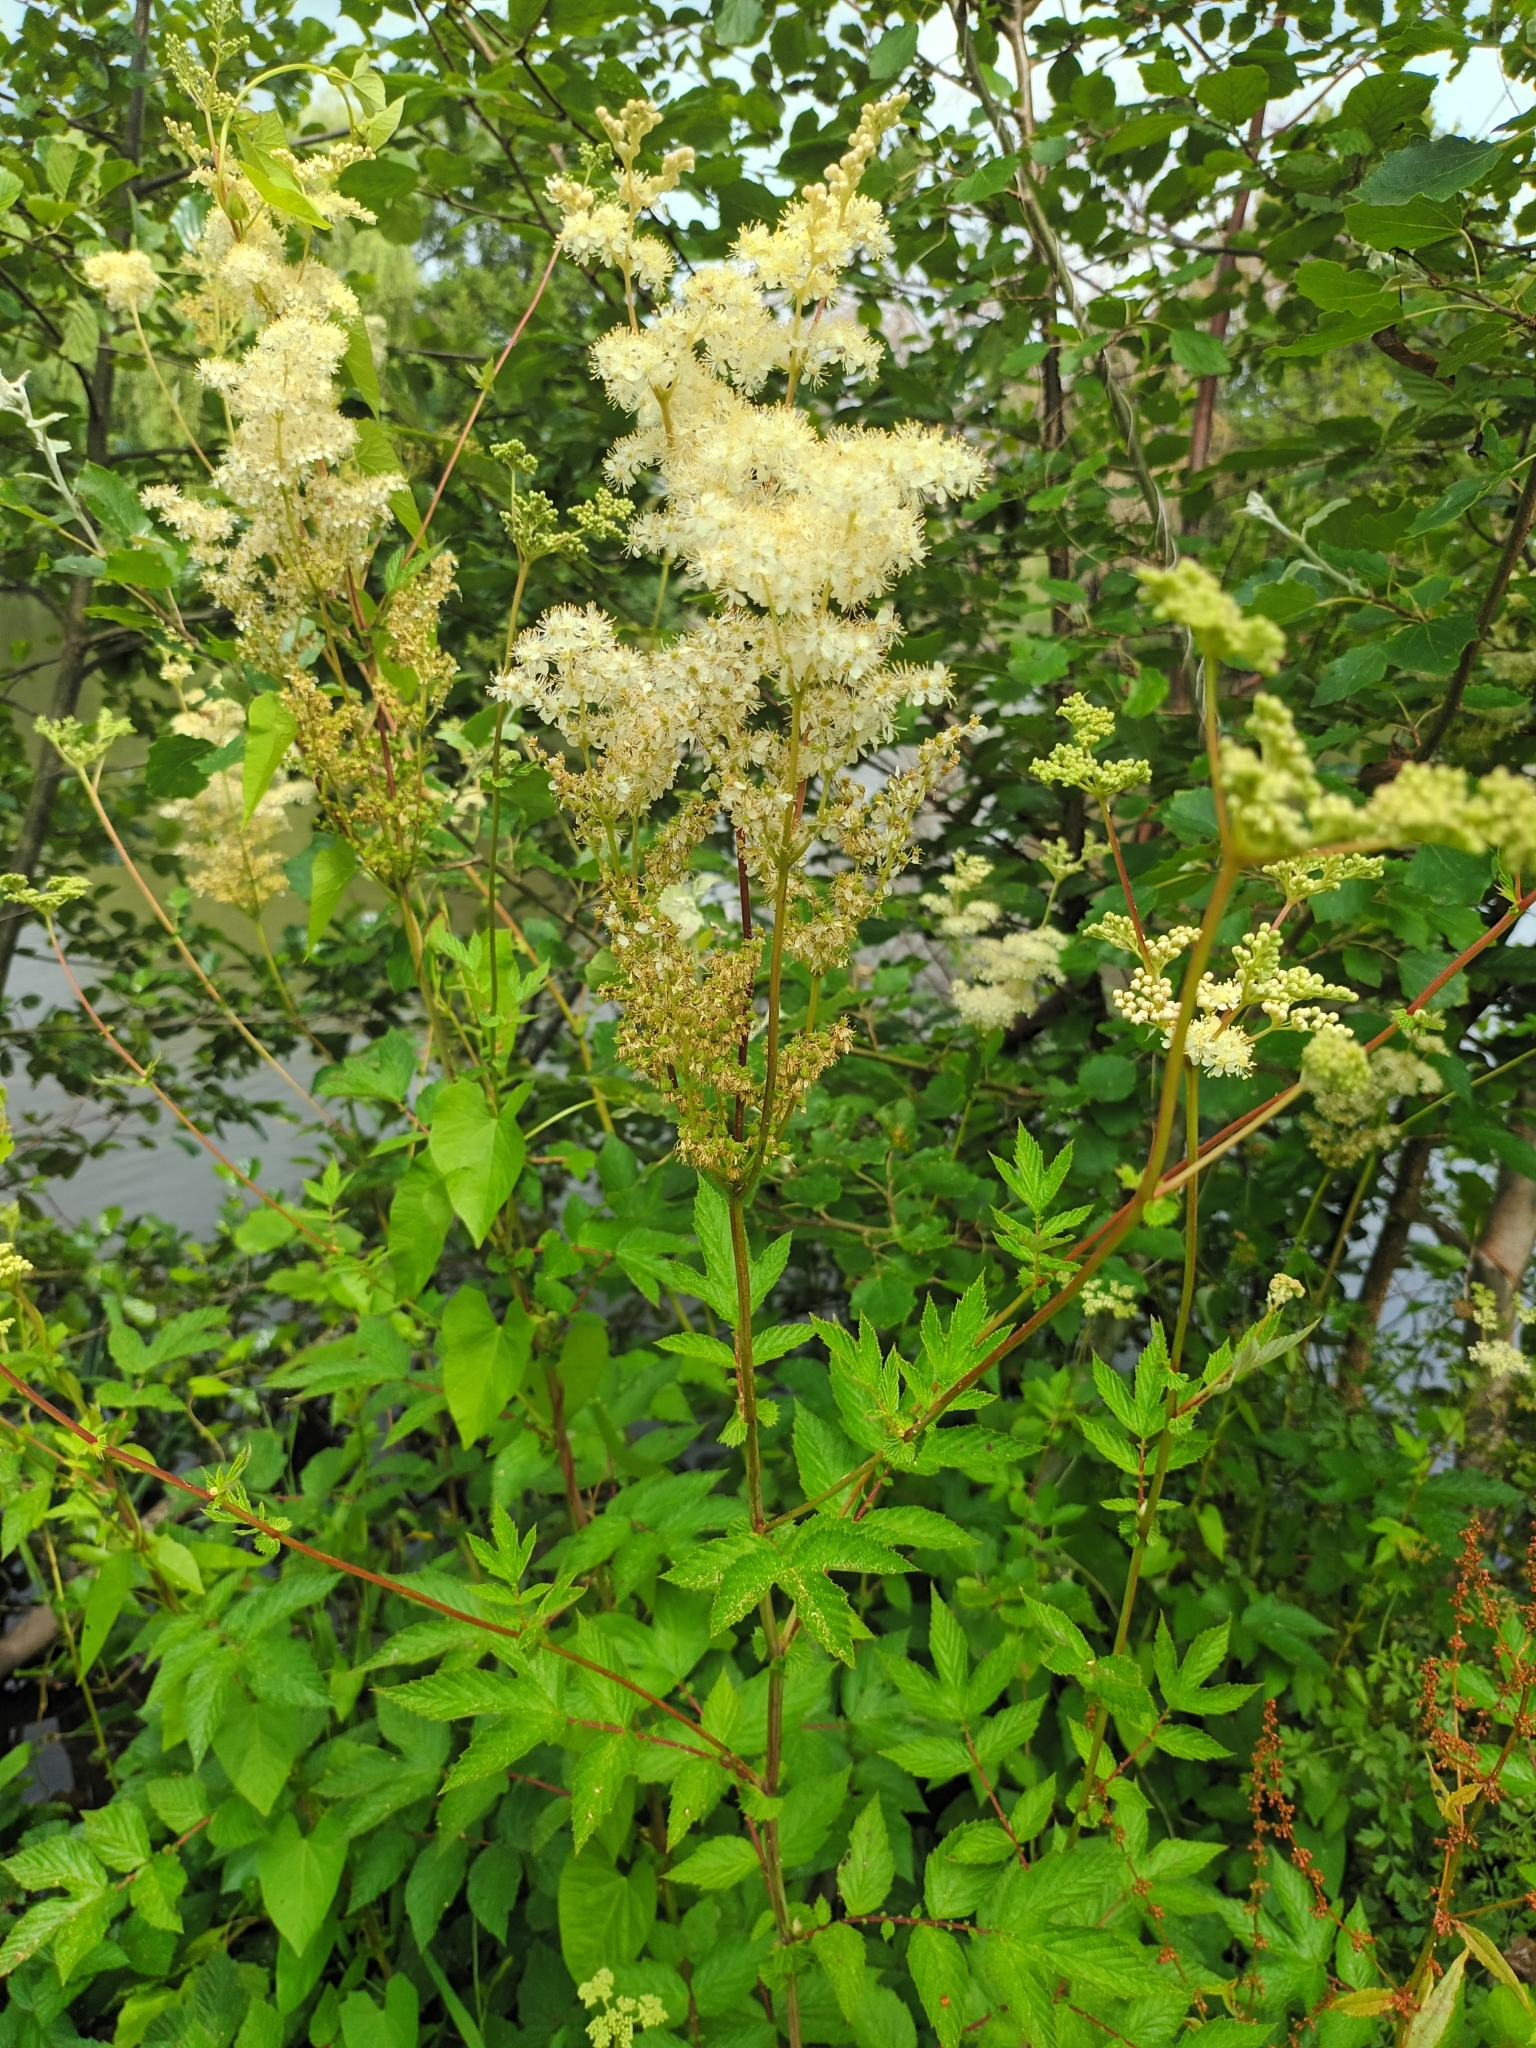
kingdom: Plantae
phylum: Tracheophyta
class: Magnoliopsida
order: Rosales
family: Rosaceae
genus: Filipendula
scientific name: Filipendula ulmaria
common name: Meadowsweet
